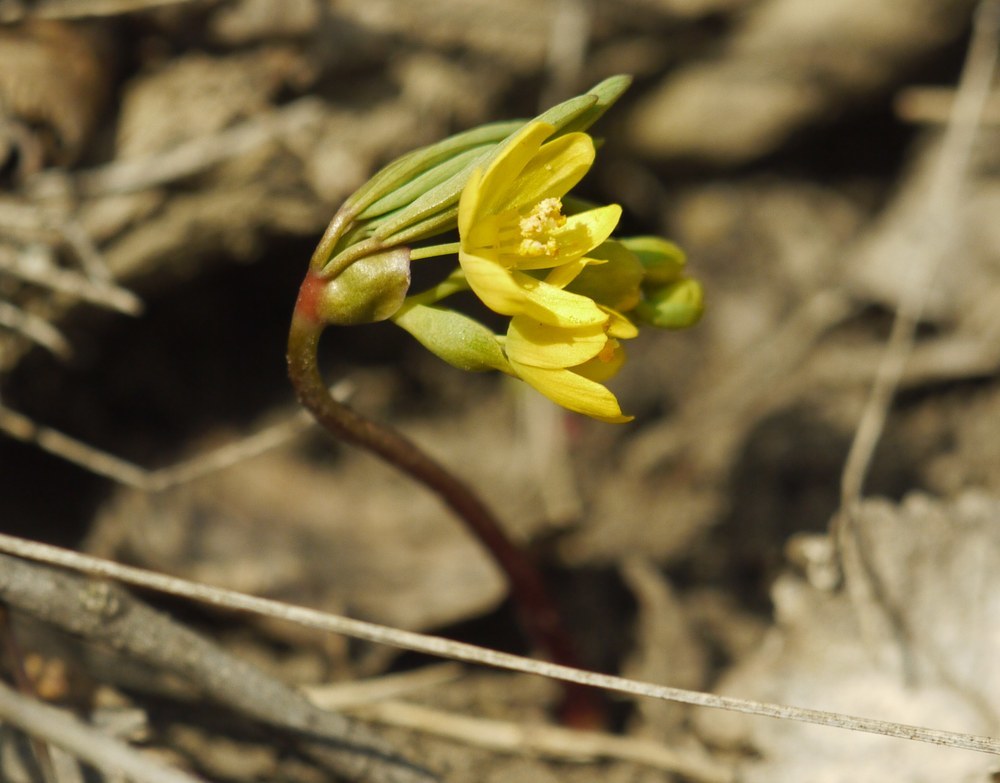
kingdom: Plantae
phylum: Tracheophyta
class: Magnoliopsida
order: Ranunculales
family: Berberidaceae
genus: Gymnospermium
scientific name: Gymnospermium odessanum
